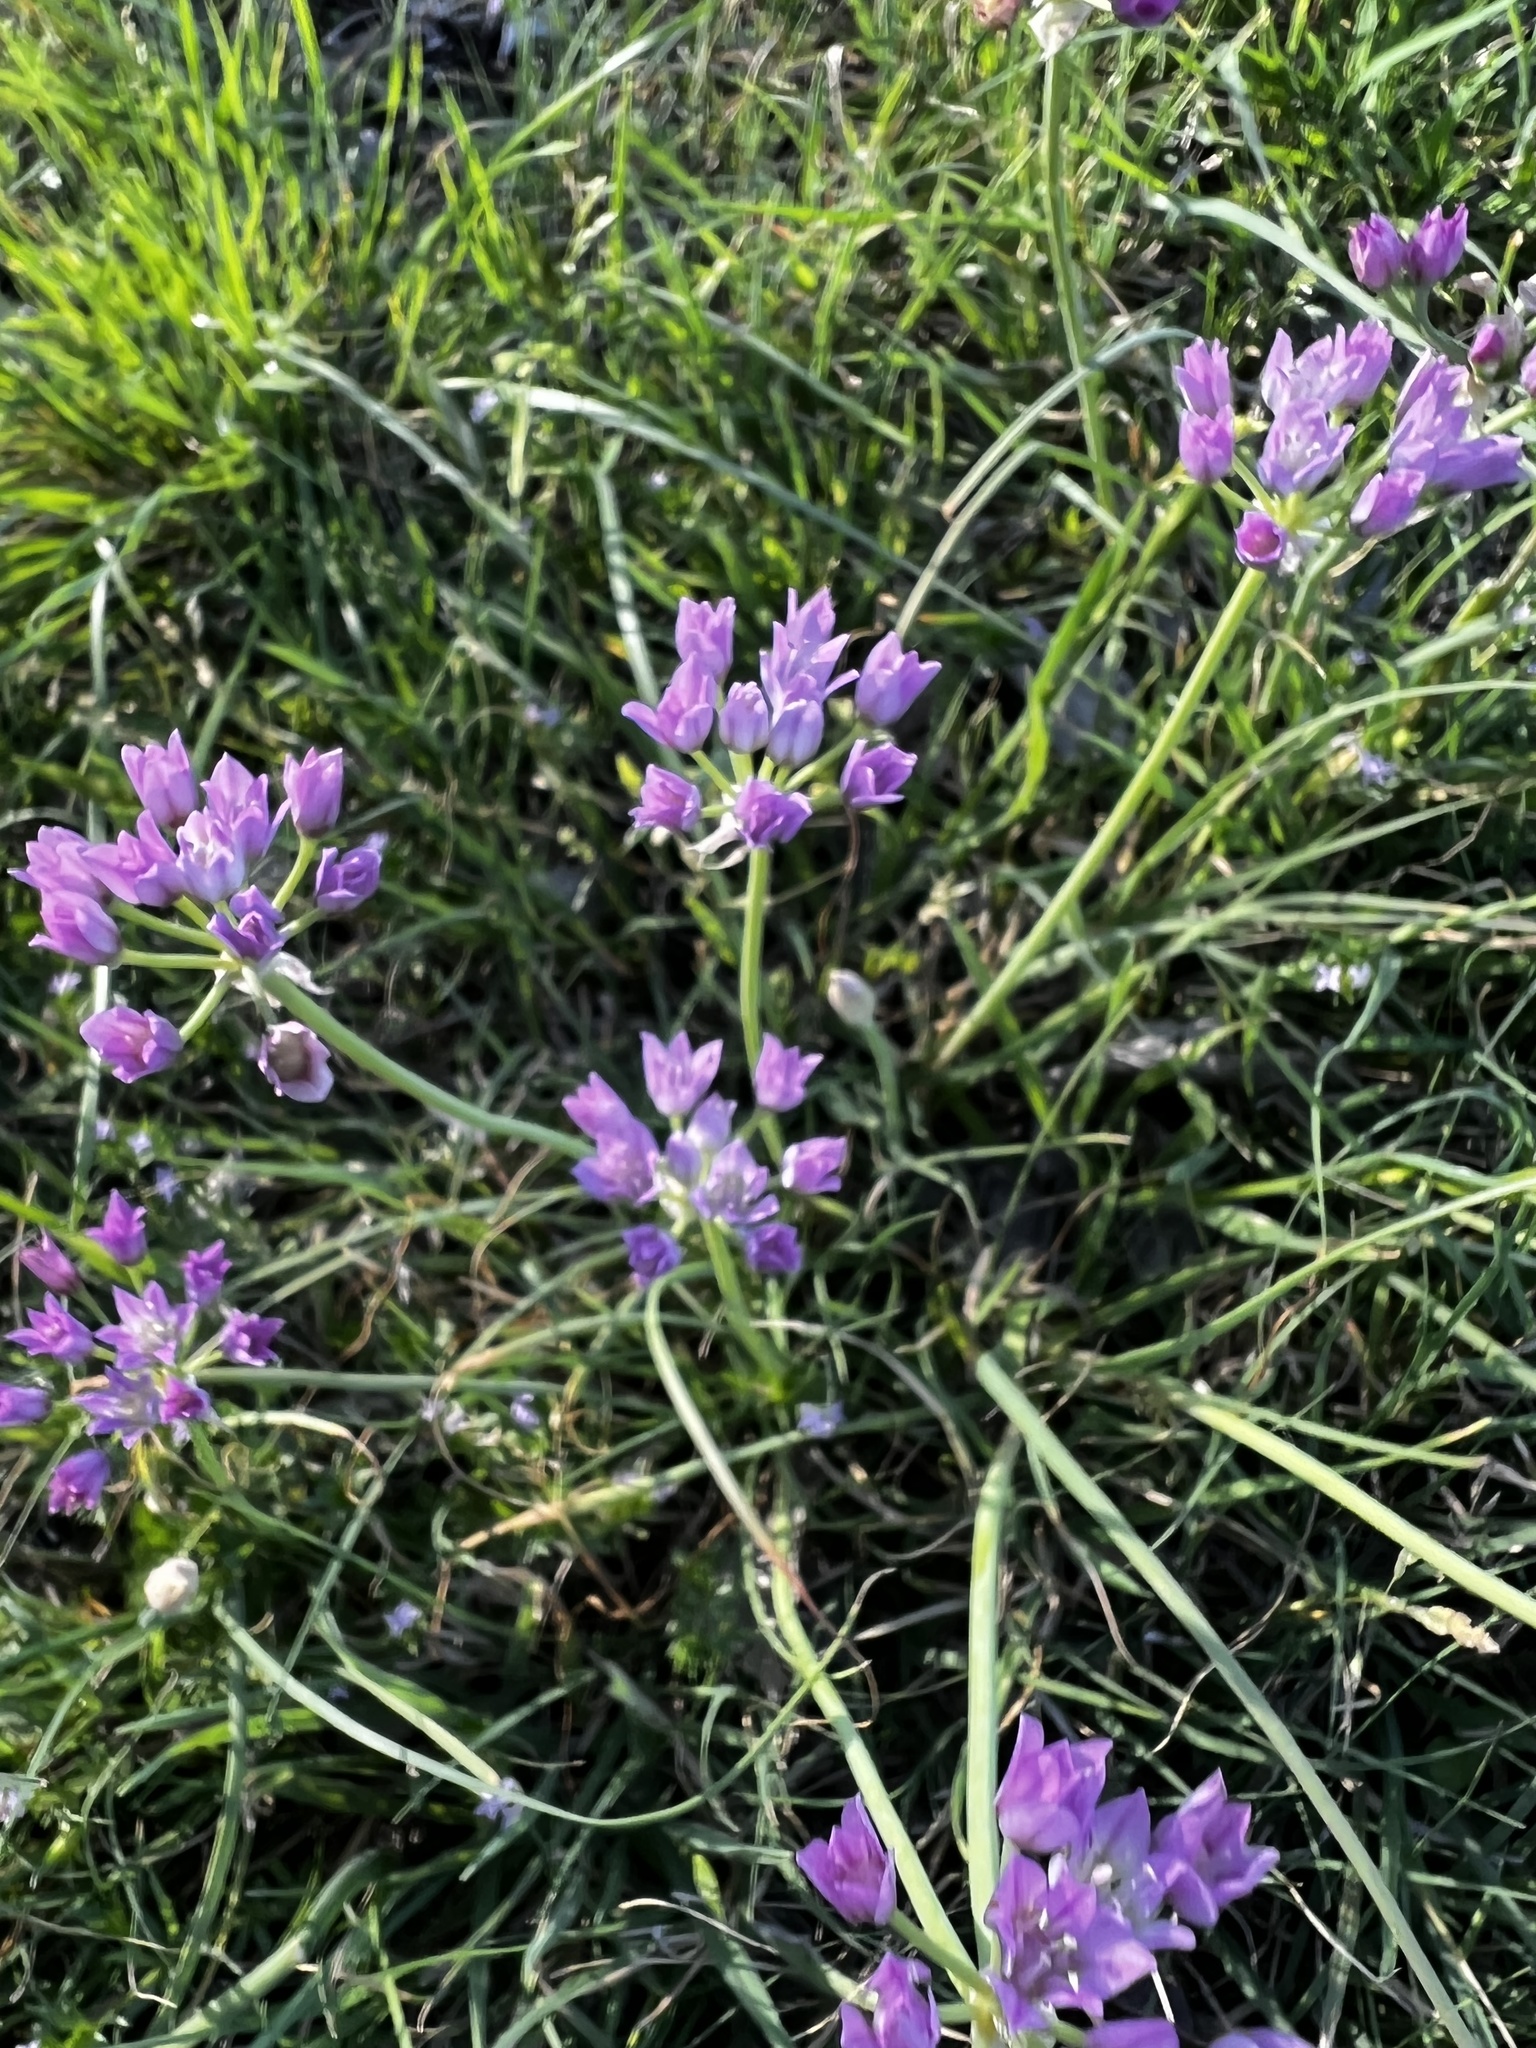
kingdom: Plantae
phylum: Tracheophyta
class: Liliopsida
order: Asparagales
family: Amaryllidaceae
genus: Allium
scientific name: Allium drummondii
